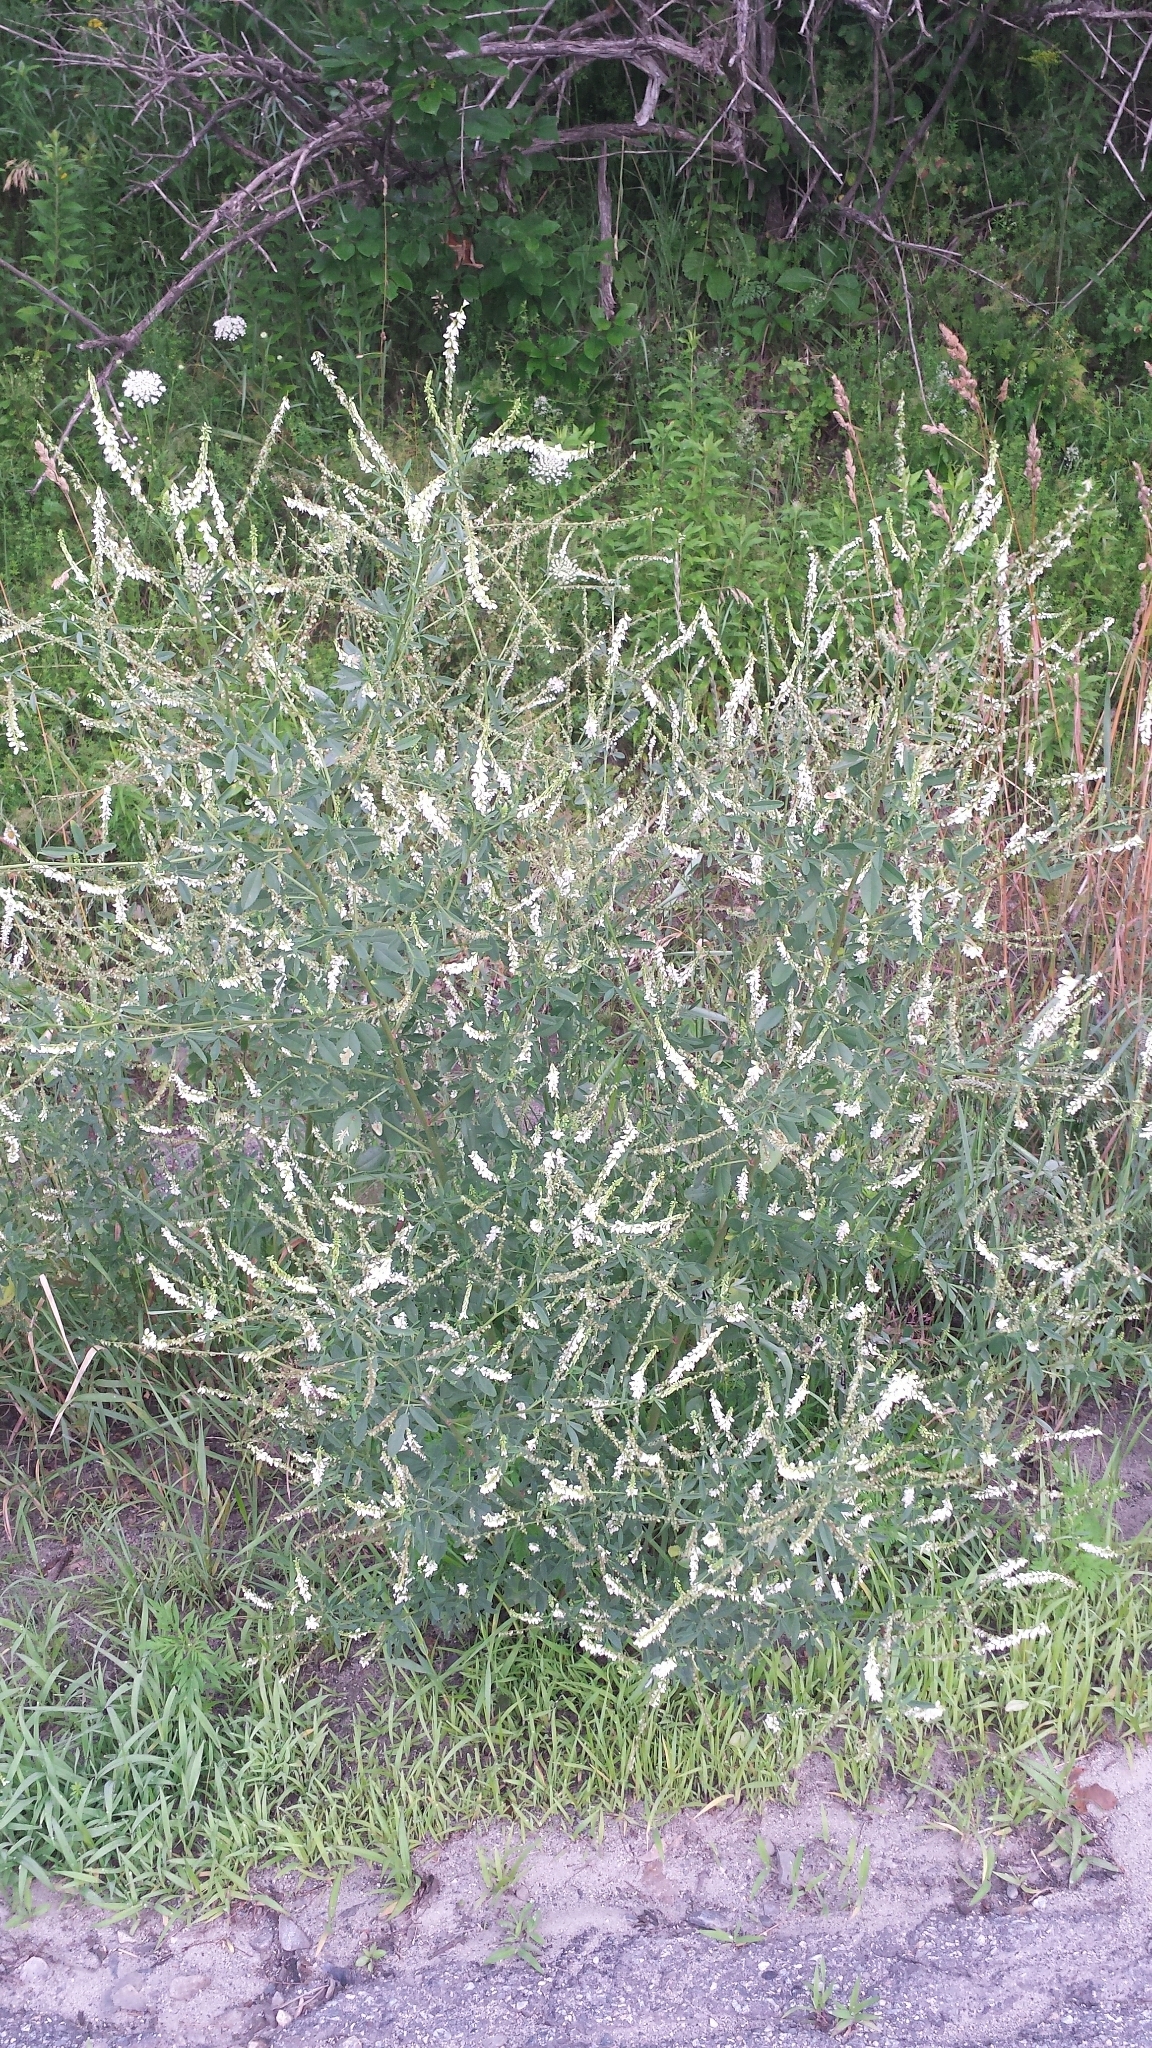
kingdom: Plantae
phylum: Tracheophyta
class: Magnoliopsida
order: Fabales
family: Fabaceae
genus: Melilotus
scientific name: Melilotus albus
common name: White melilot
